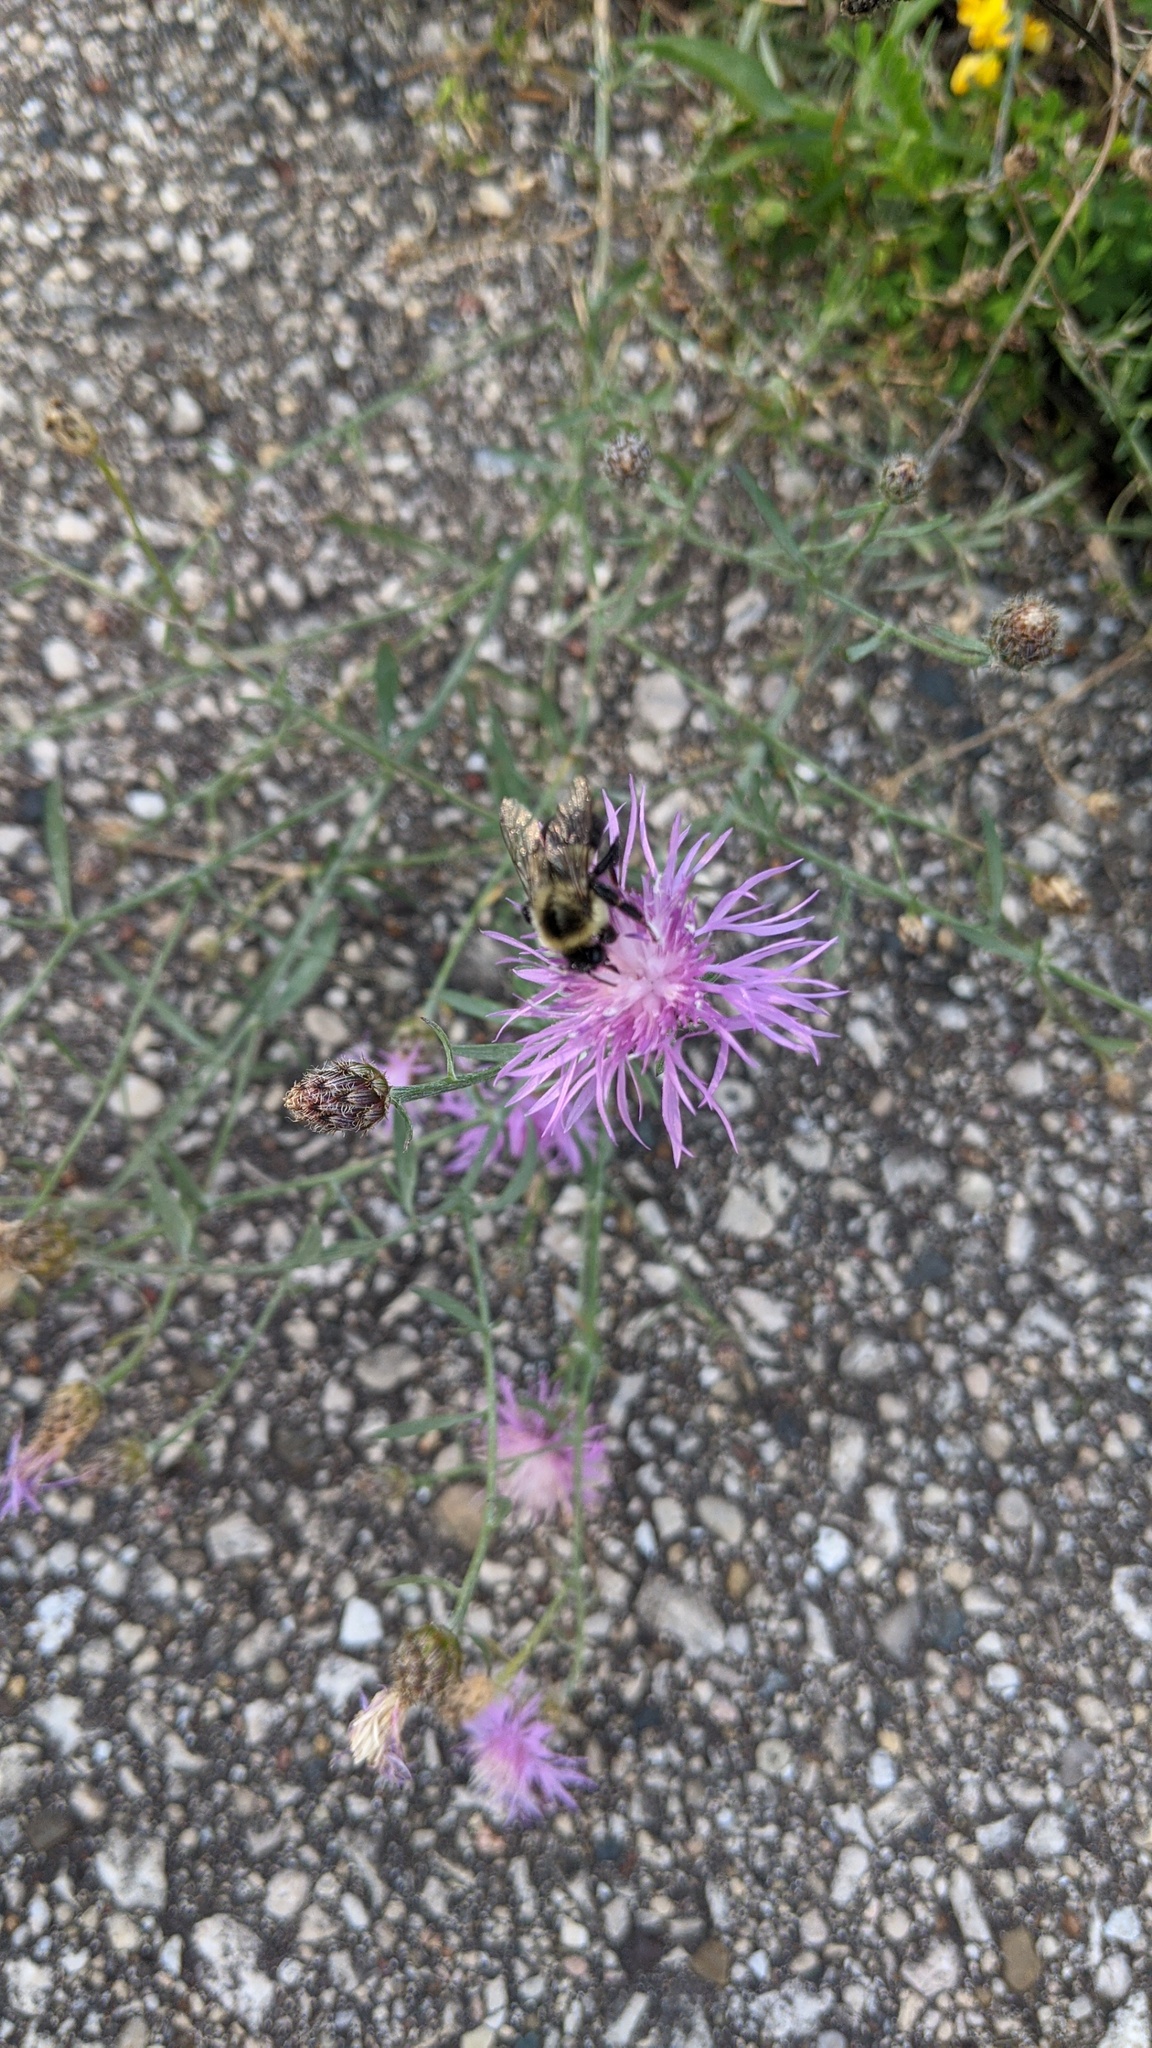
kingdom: Animalia
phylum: Arthropoda
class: Insecta
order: Hymenoptera
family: Apidae
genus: Bombus
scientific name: Bombus impatiens
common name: Common eastern bumble bee
